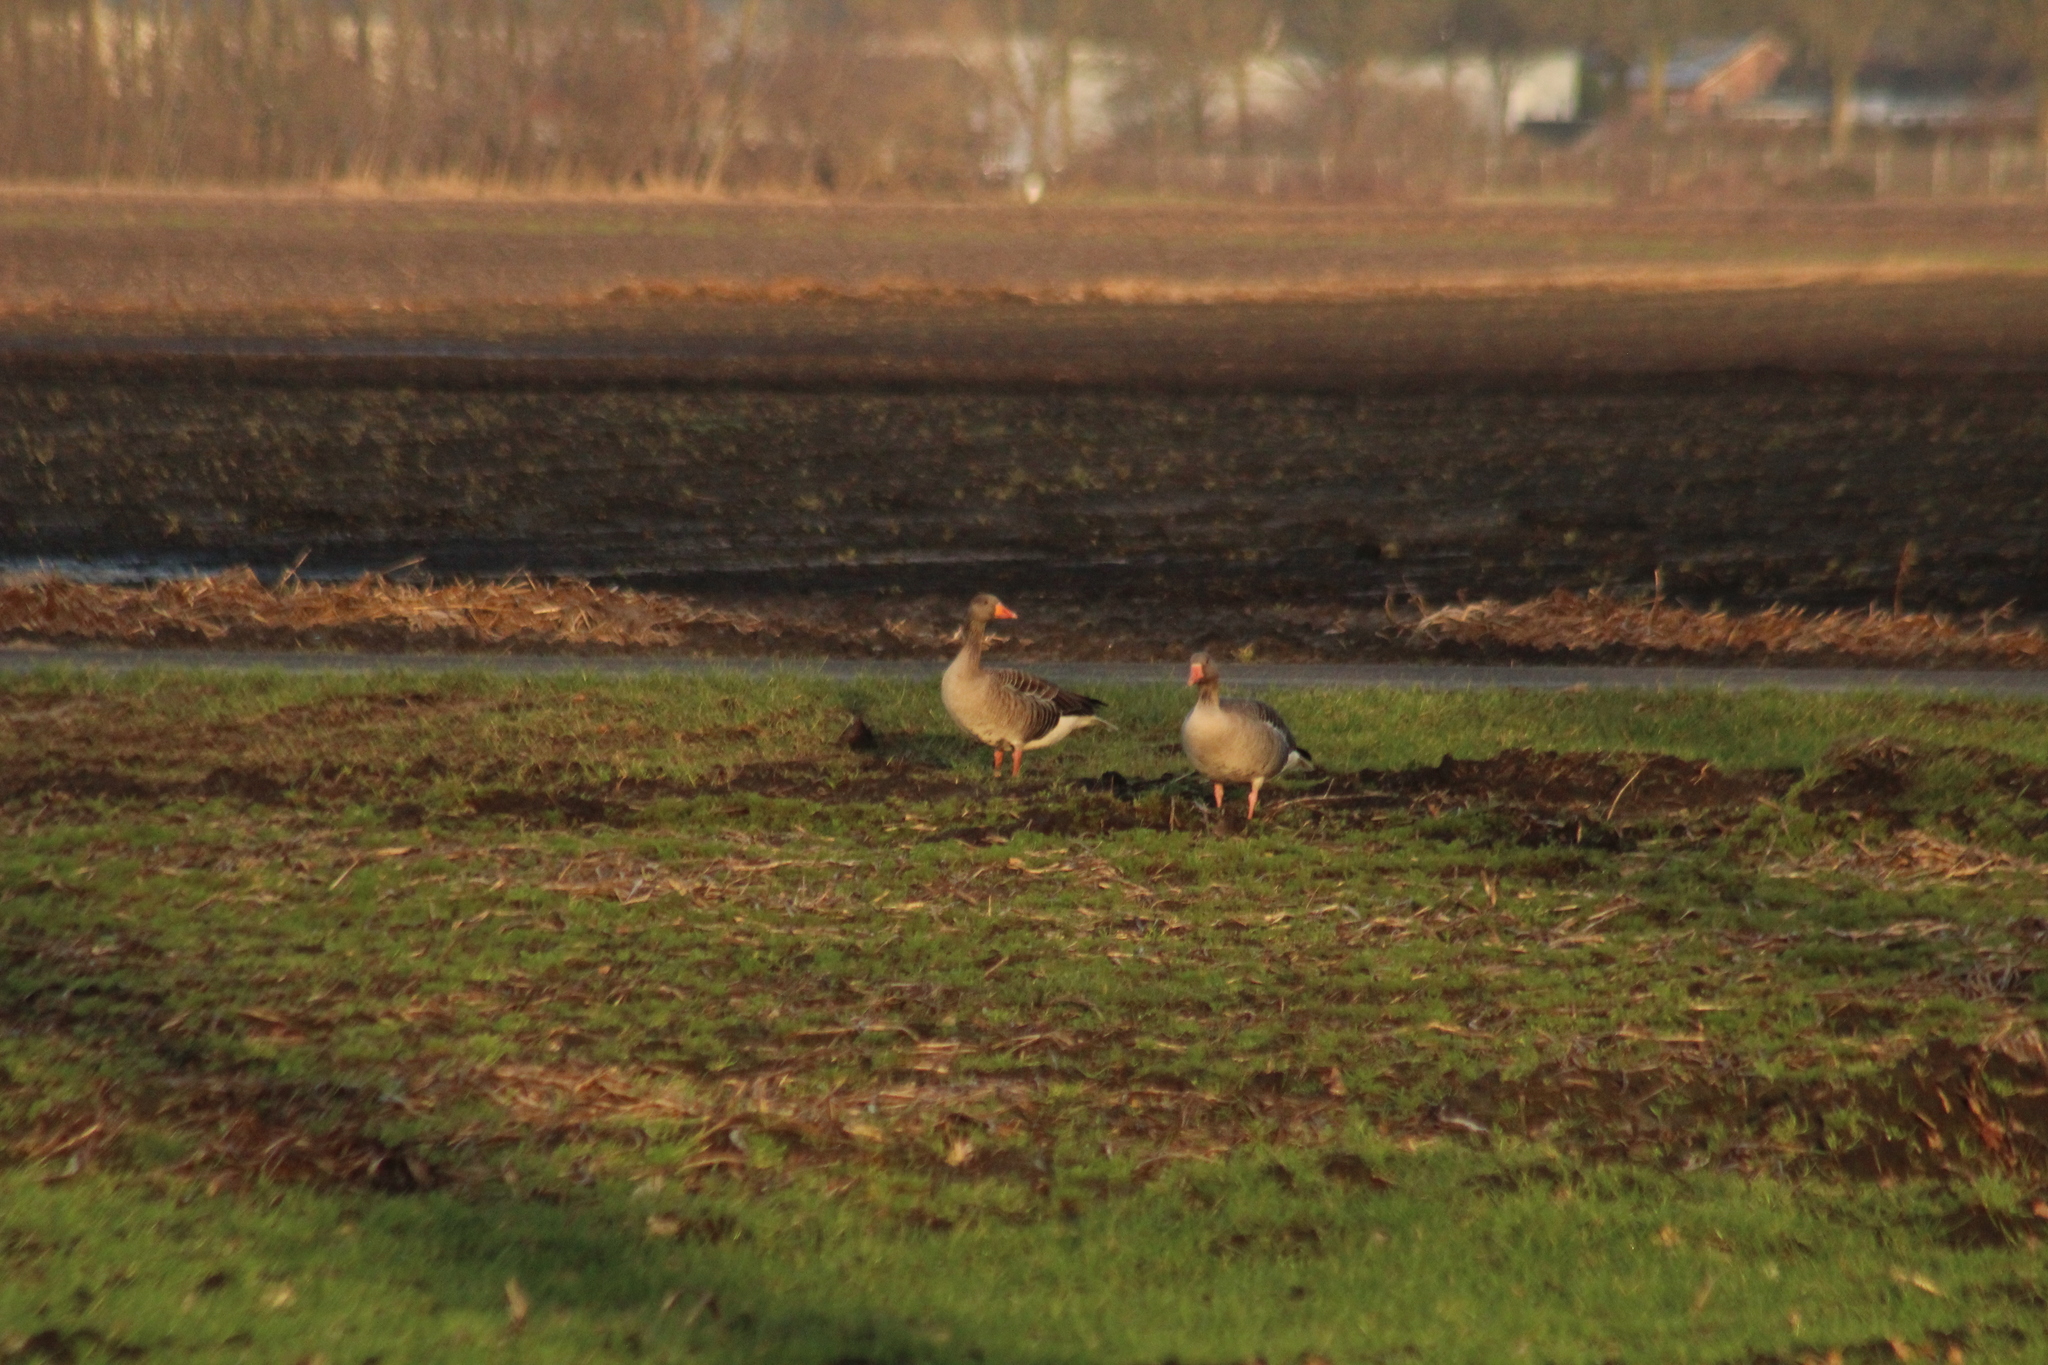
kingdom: Animalia
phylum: Chordata
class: Aves
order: Anseriformes
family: Anatidae
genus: Anser
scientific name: Anser anser
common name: Greylag goose
